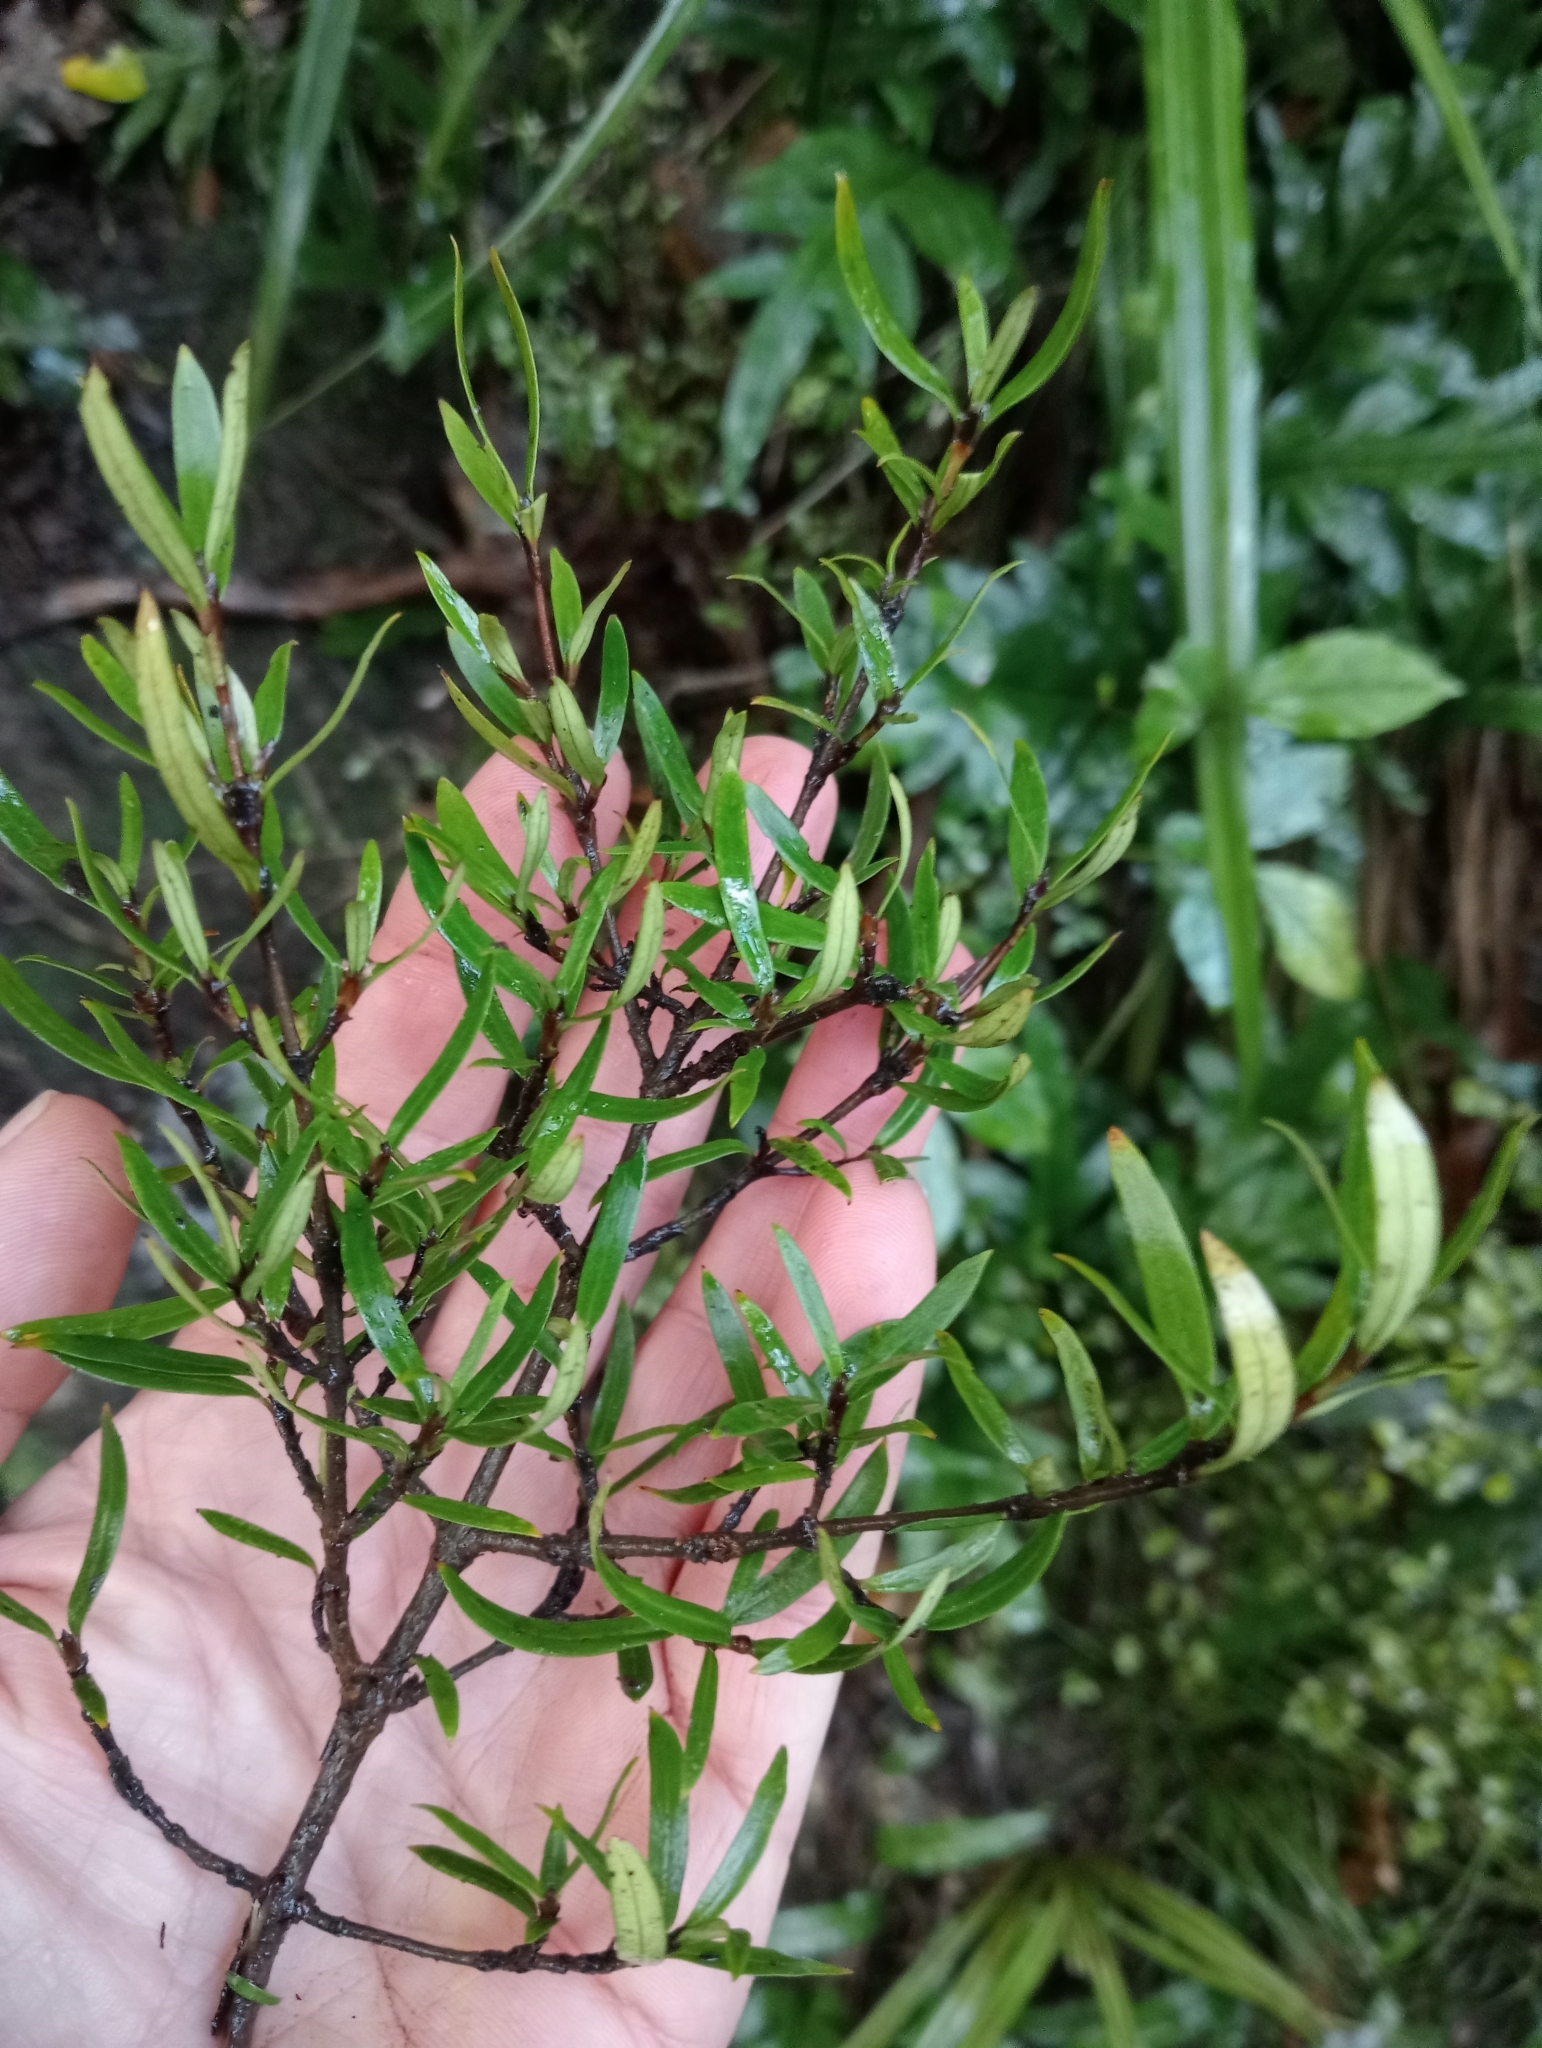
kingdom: Plantae
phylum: Tracheophyta
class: Magnoliopsida
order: Gentianales
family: Rubiaceae
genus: Coprosma
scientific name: Coprosma linariifolia
